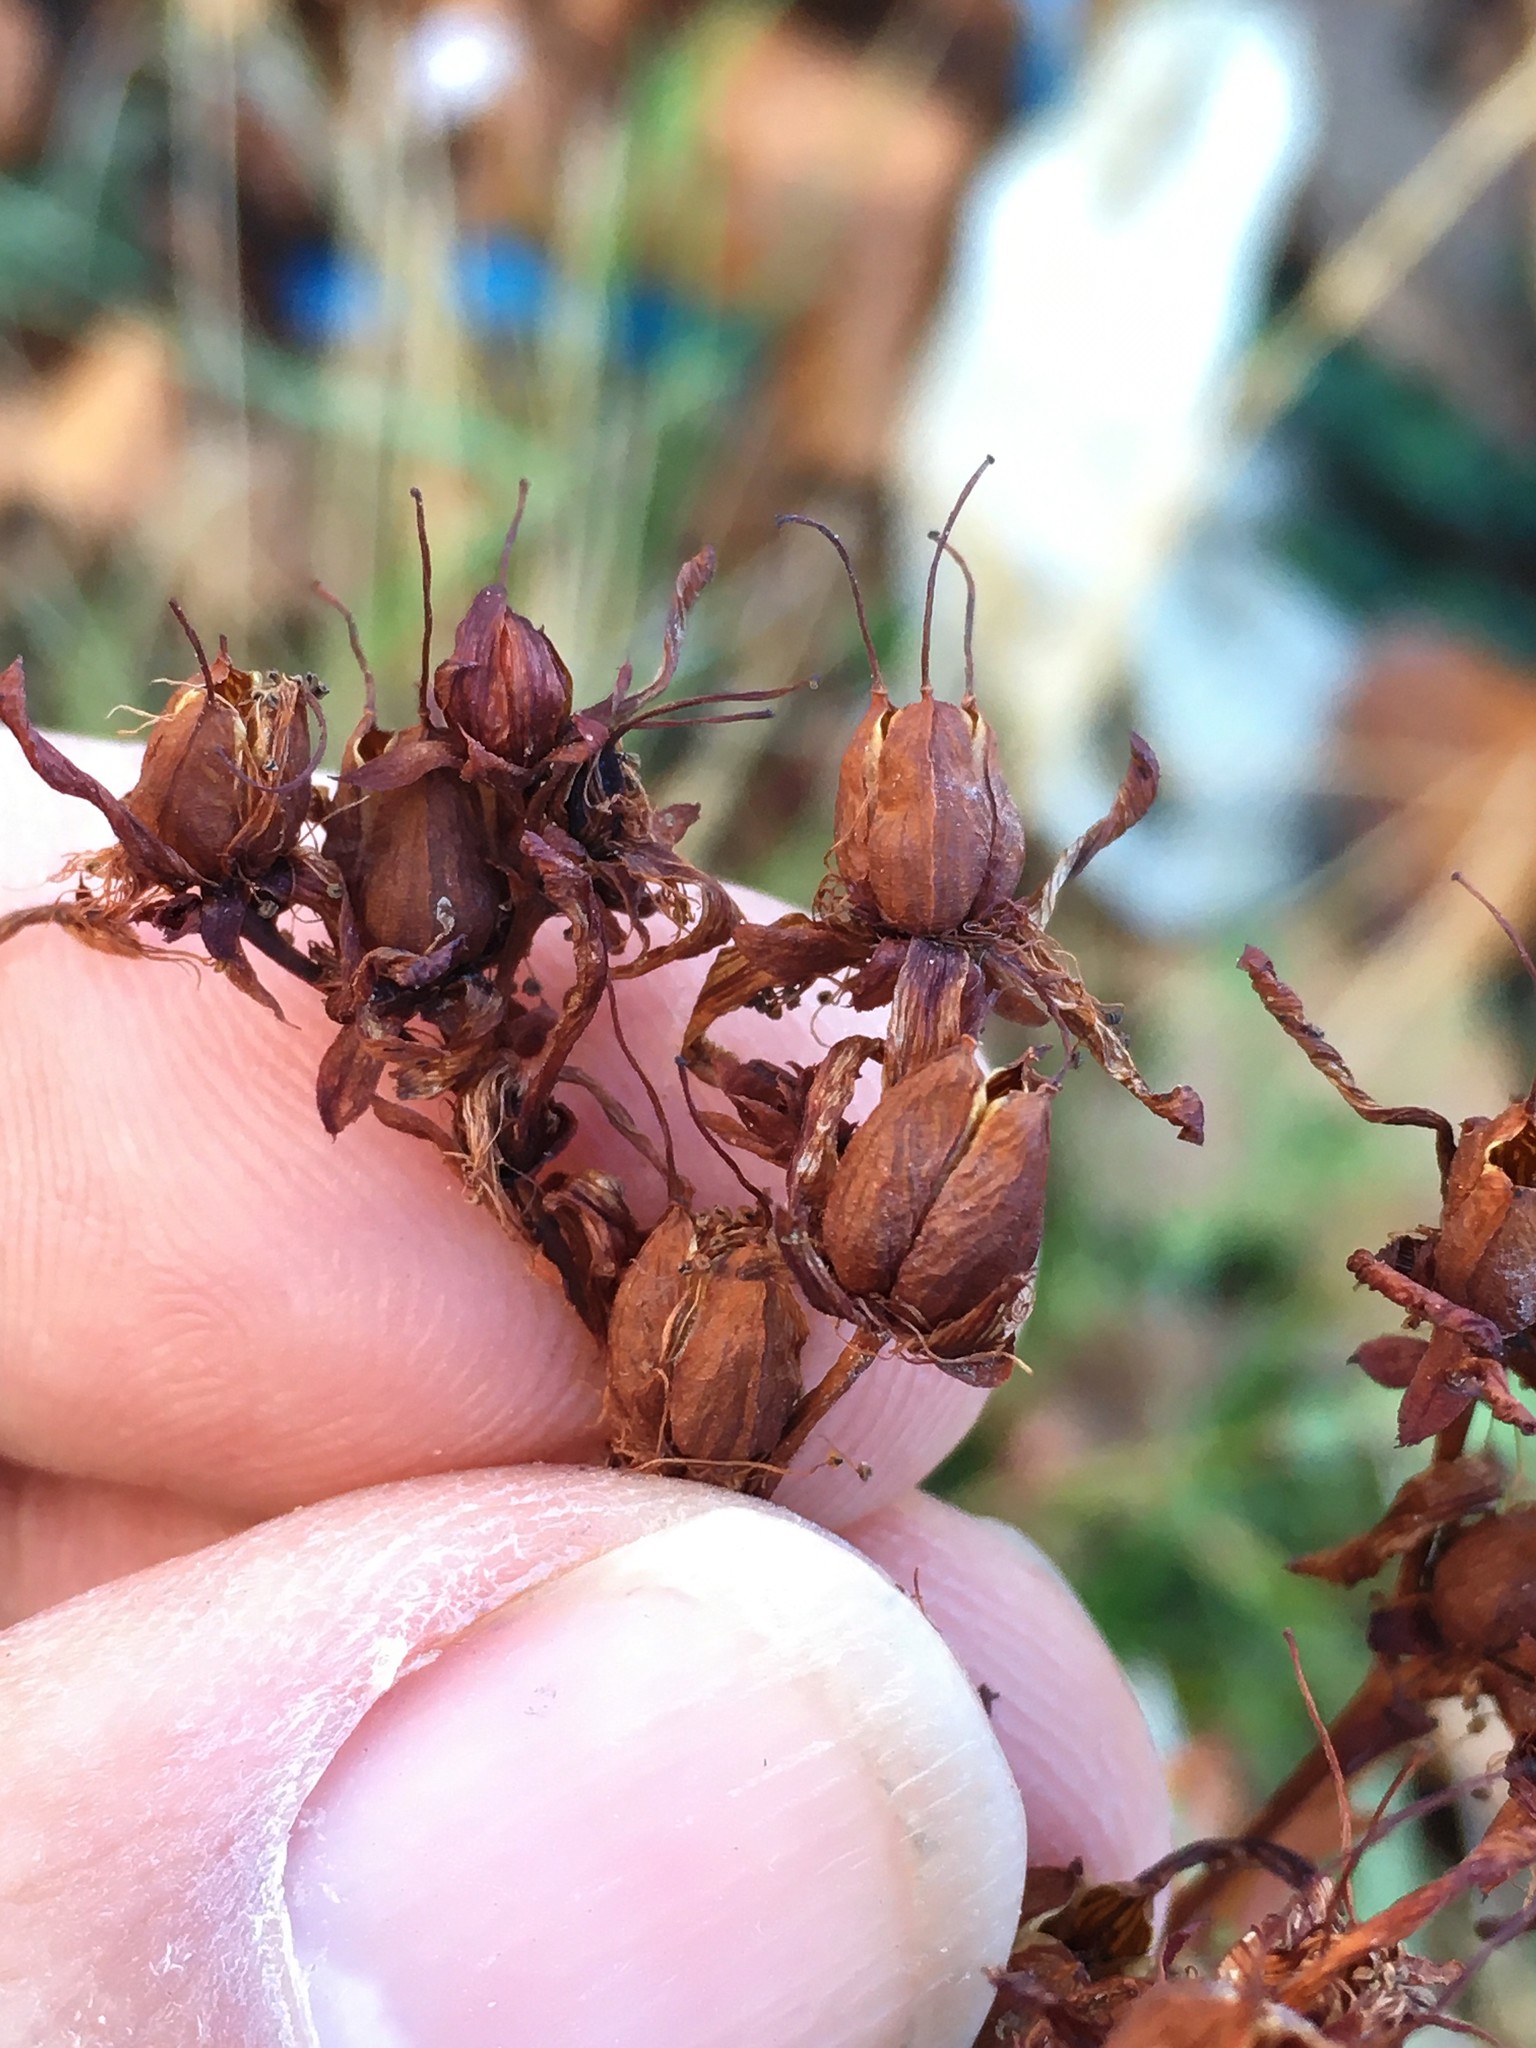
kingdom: Plantae
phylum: Tracheophyta
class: Magnoliopsida
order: Malpighiales
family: Hypericaceae
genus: Hypericum
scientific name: Hypericum perforatum
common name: Common st. johnswort
